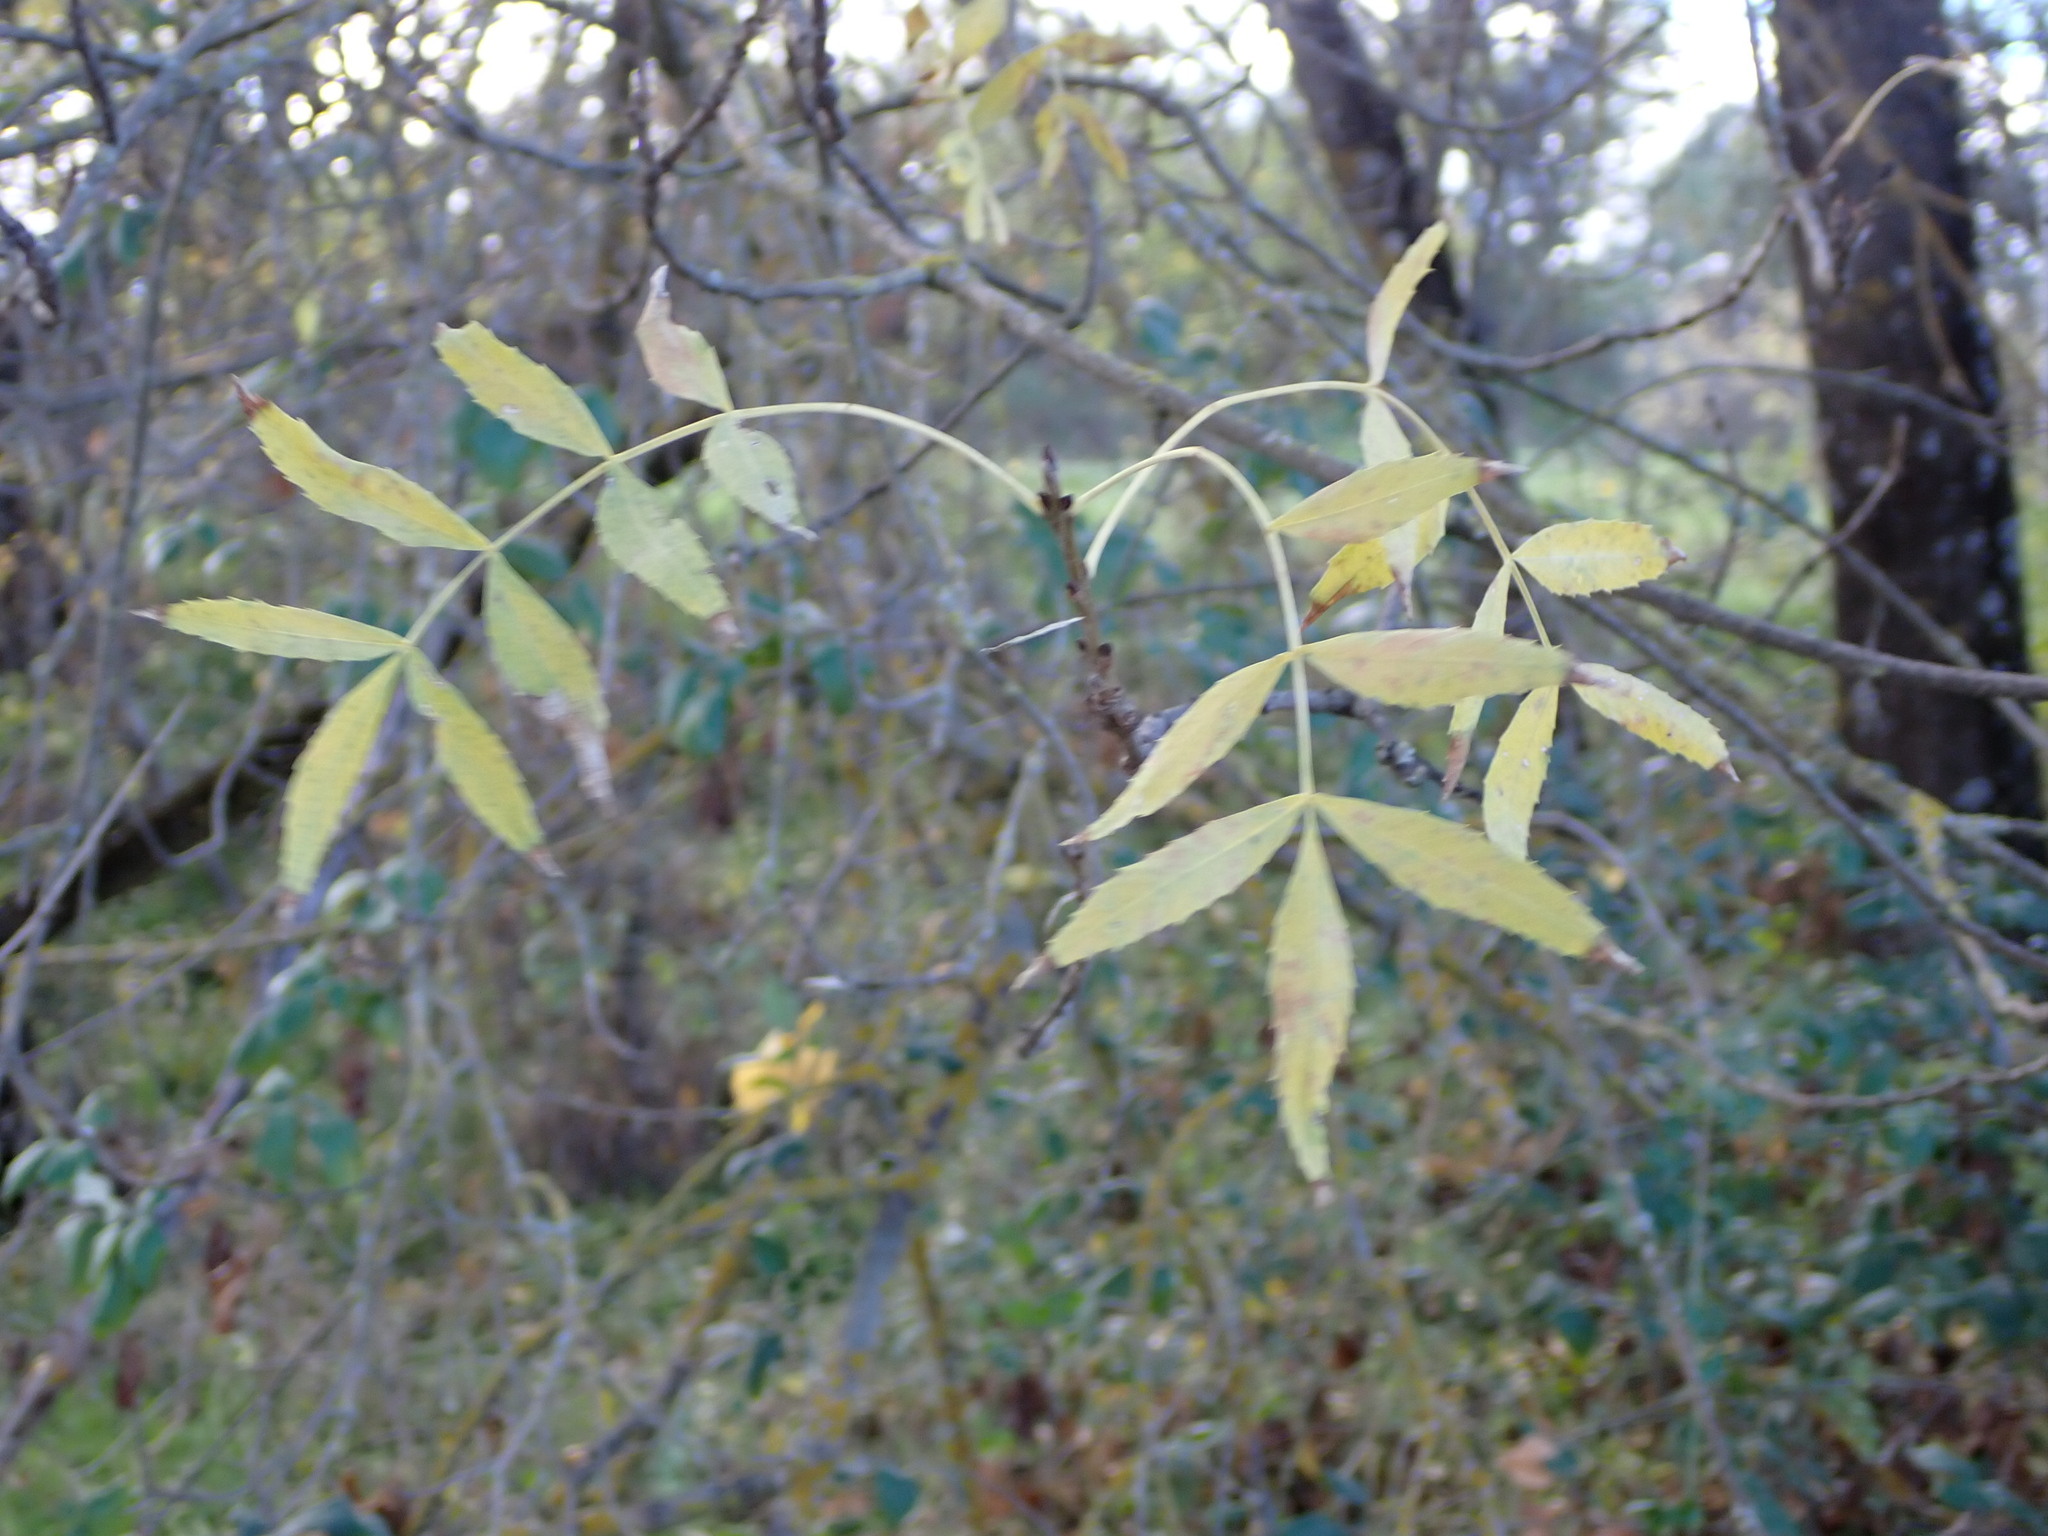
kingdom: Plantae
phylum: Tracheophyta
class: Magnoliopsida
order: Lamiales
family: Oleaceae
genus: Fraxinus
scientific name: Fraxinus angustifolia
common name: Narrow-leafed ash
